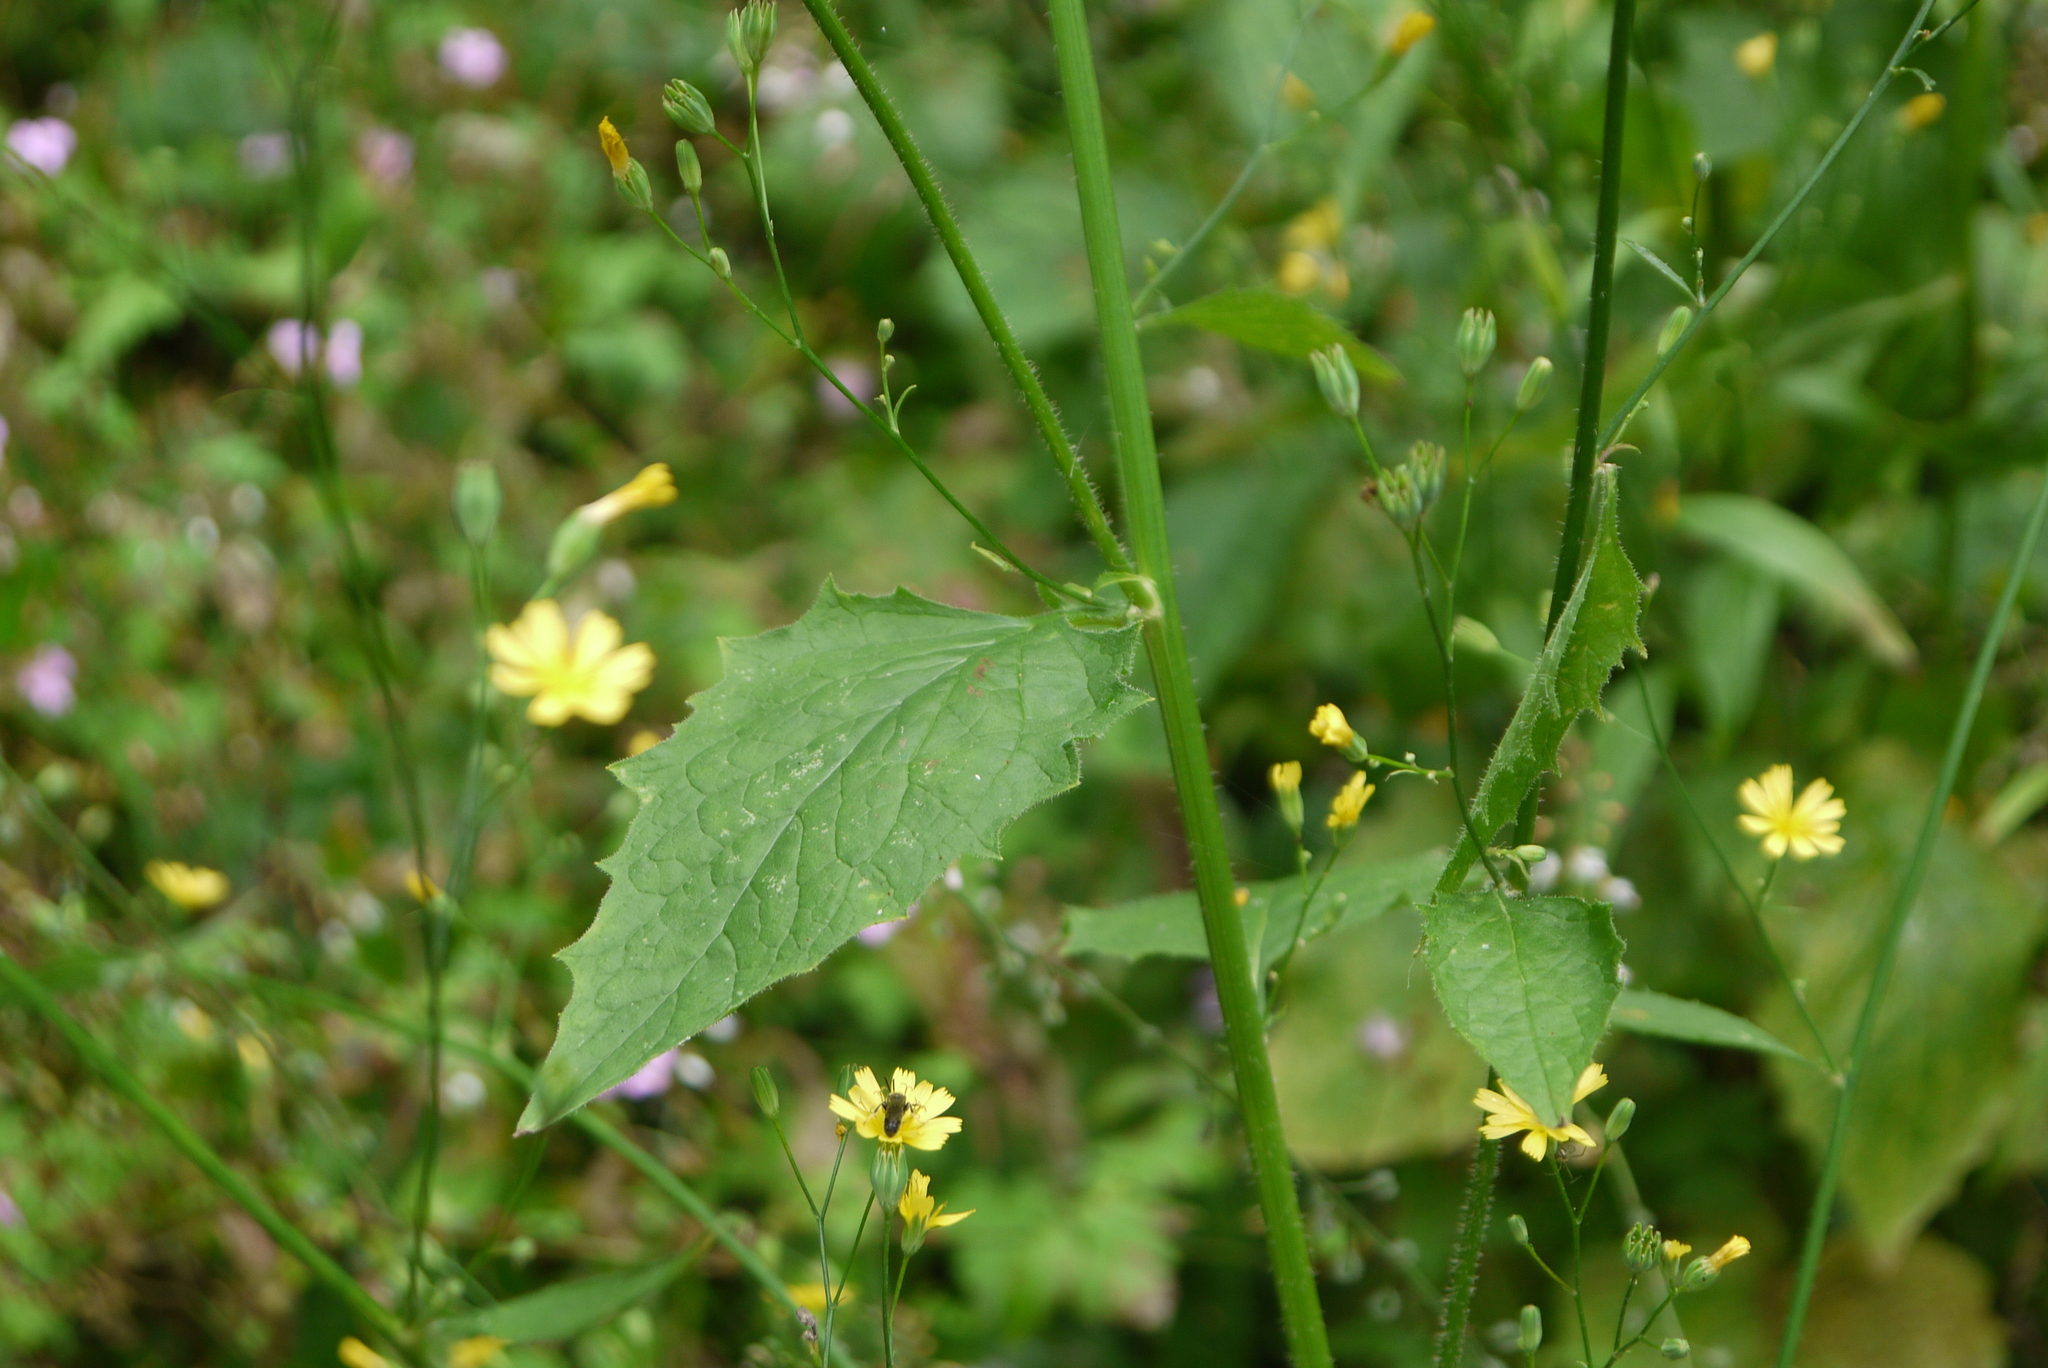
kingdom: Plantae
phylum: Tracheophyta
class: Magnoliopsida
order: Asterales
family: Asteraceae
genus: Lapsana
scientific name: Lapsana communis
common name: Nipplewort
